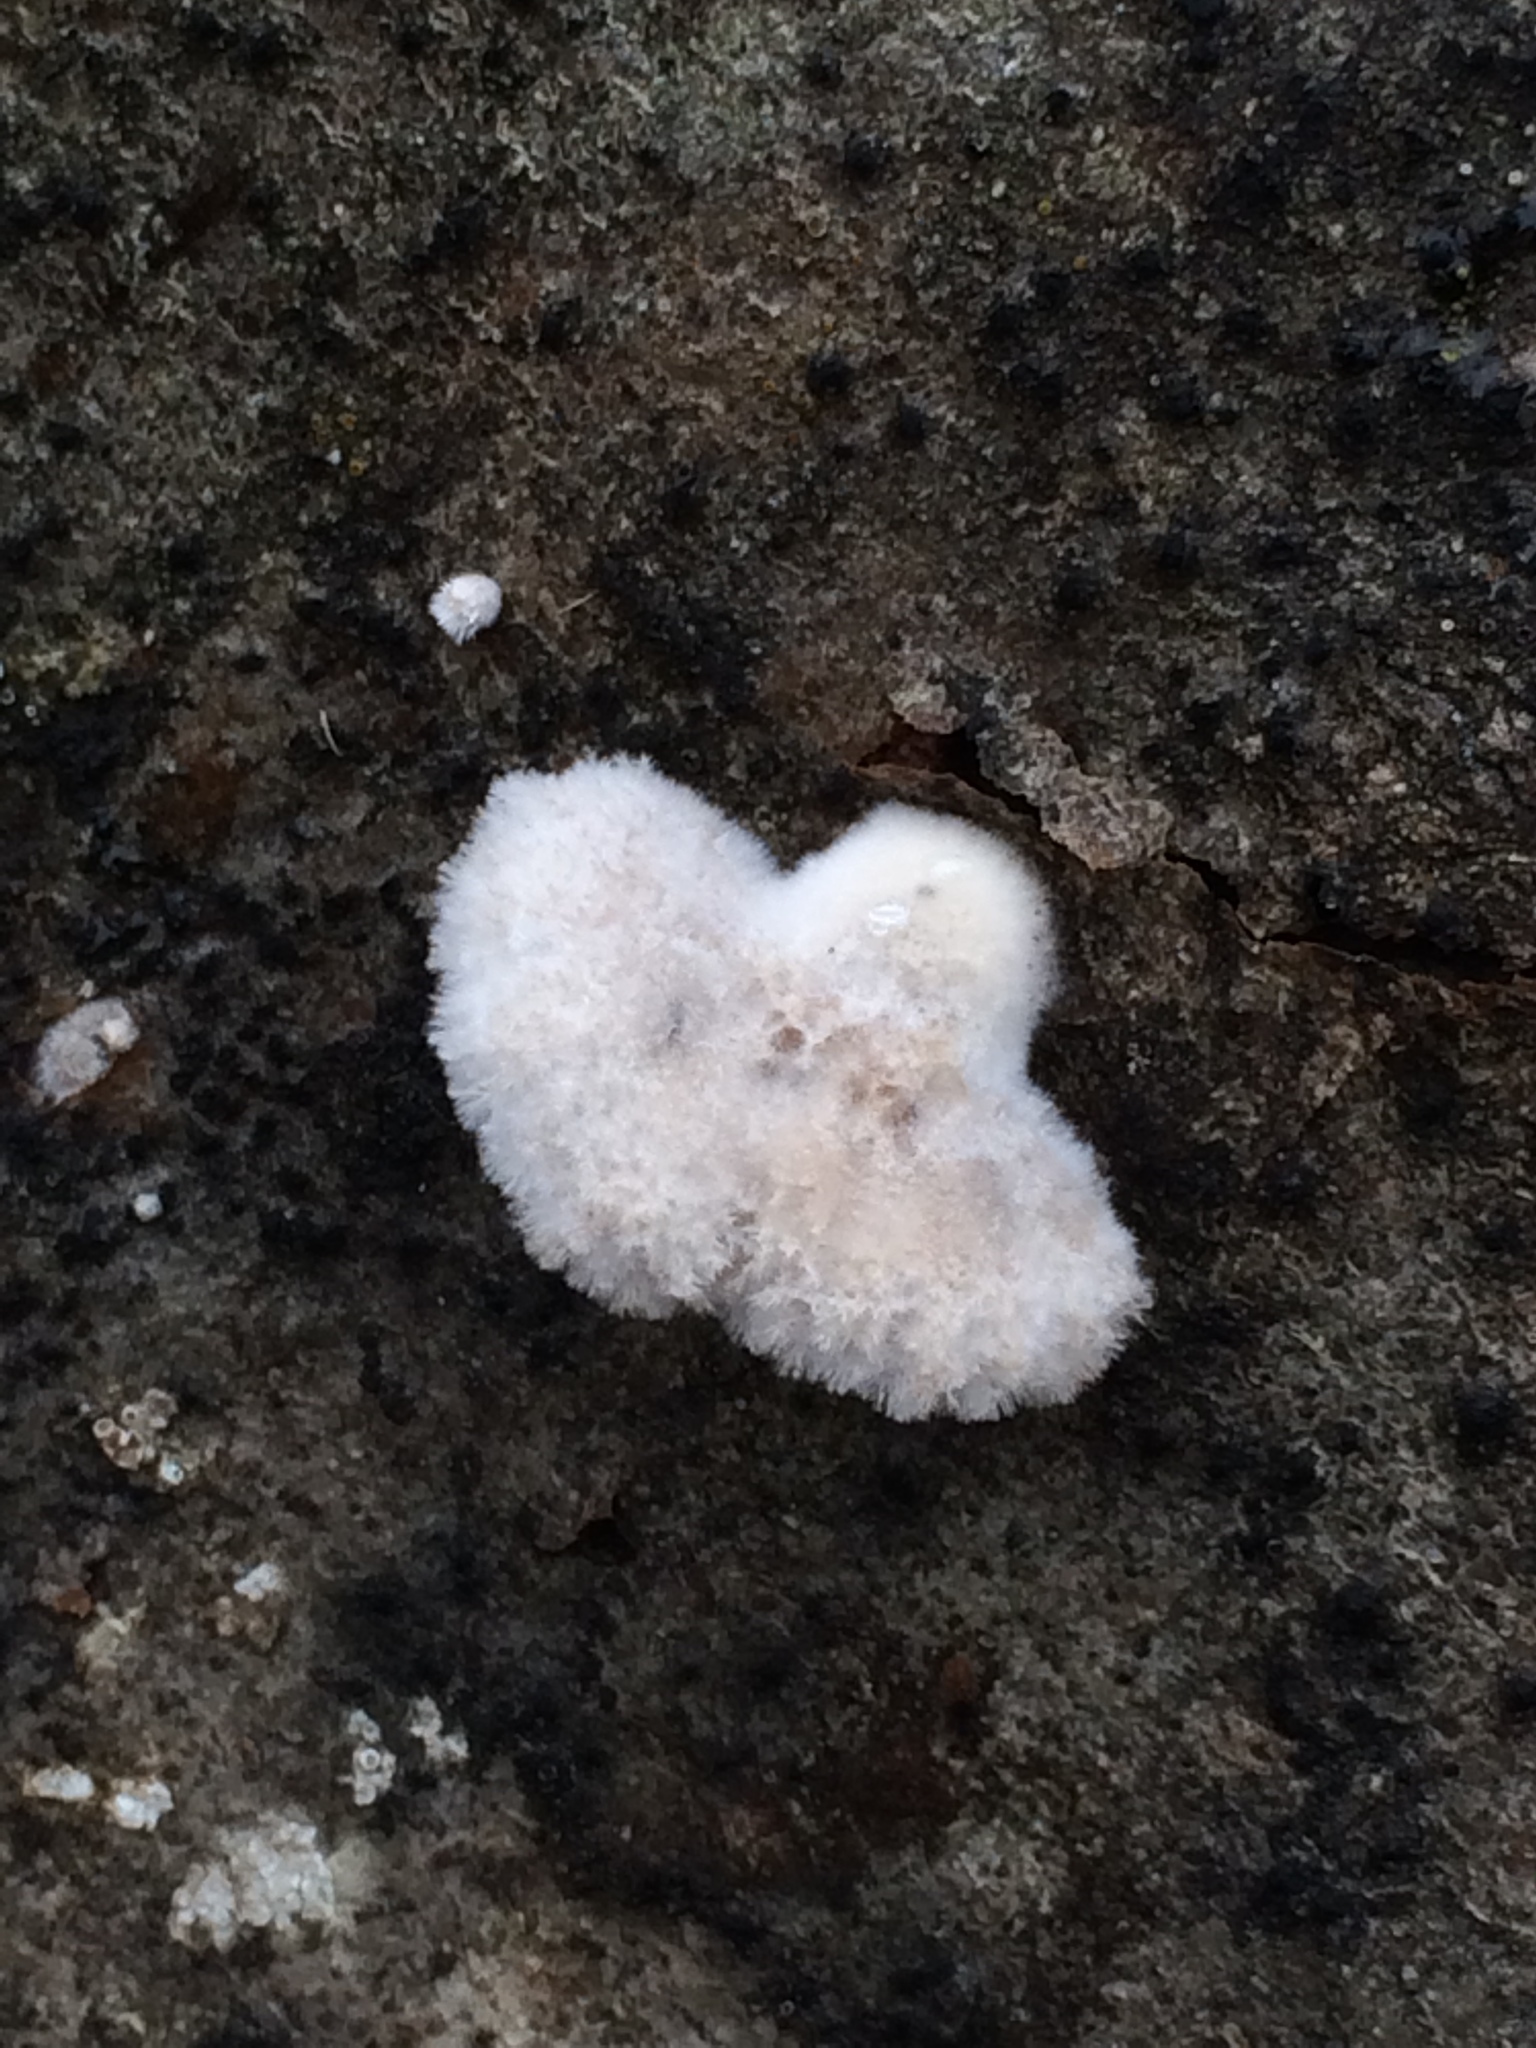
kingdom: Fungi
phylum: Basidiomycota
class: Agaricomycetes
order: Agaricales
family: Schizophyllaceae
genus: Schizophyllum
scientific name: Schizophyllum commune
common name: Common porecrust
